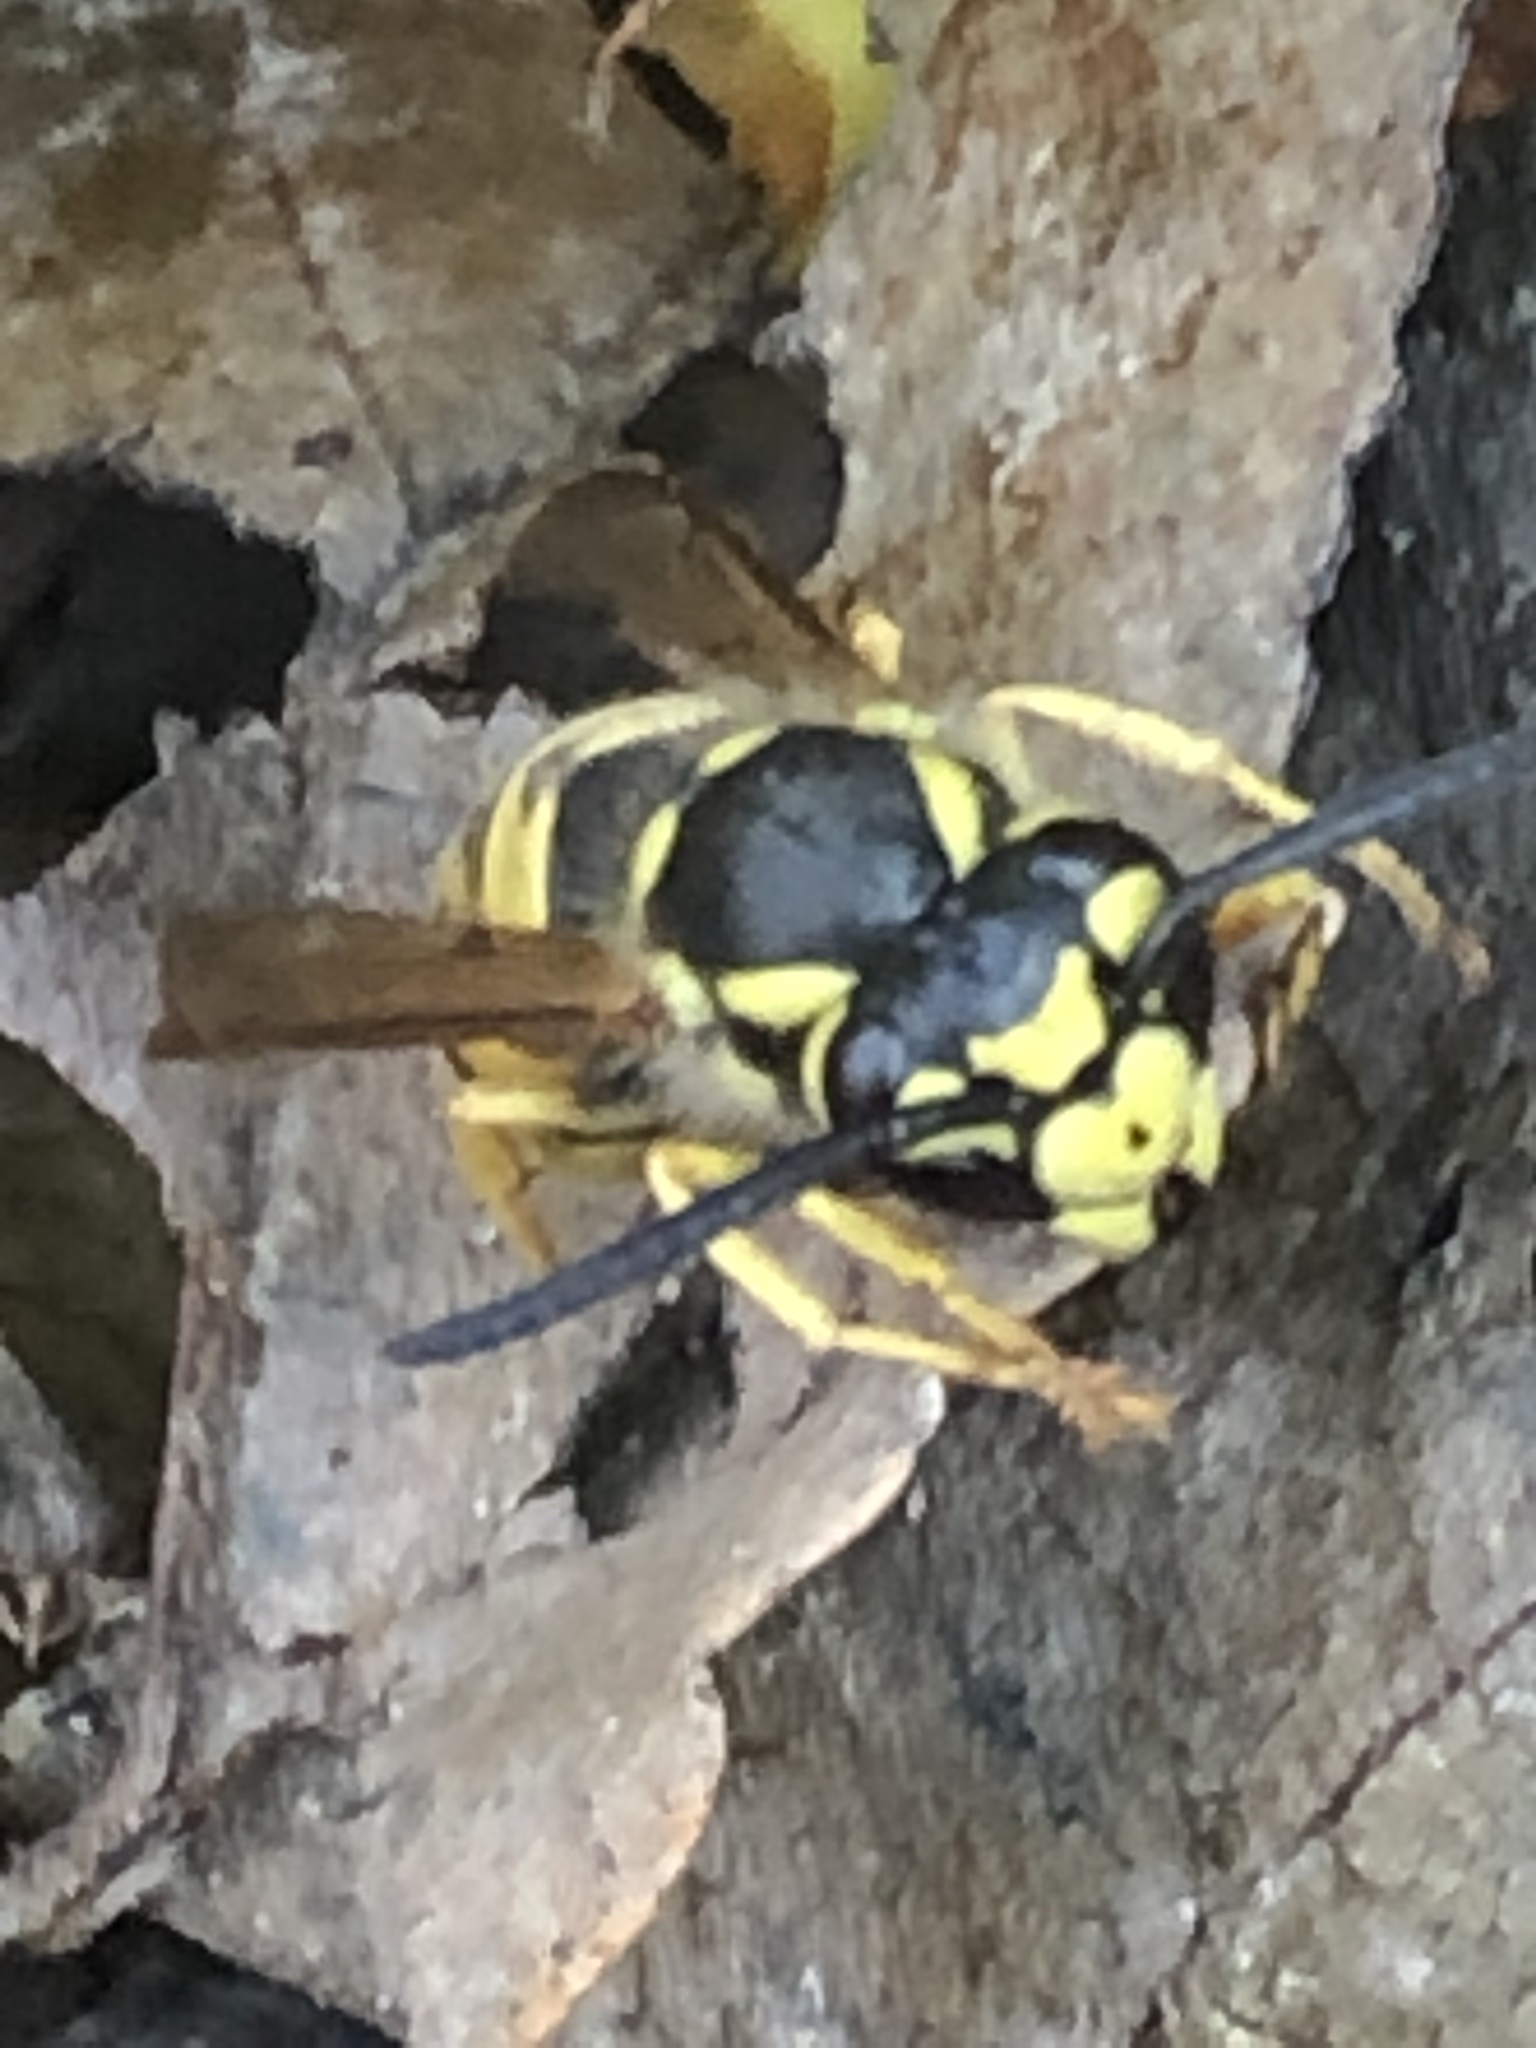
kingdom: Animalia
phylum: Arthropoda
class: Insecta
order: Hymenoptera
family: Vespidae
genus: Vespula
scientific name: Vespula germanica
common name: German wasp
